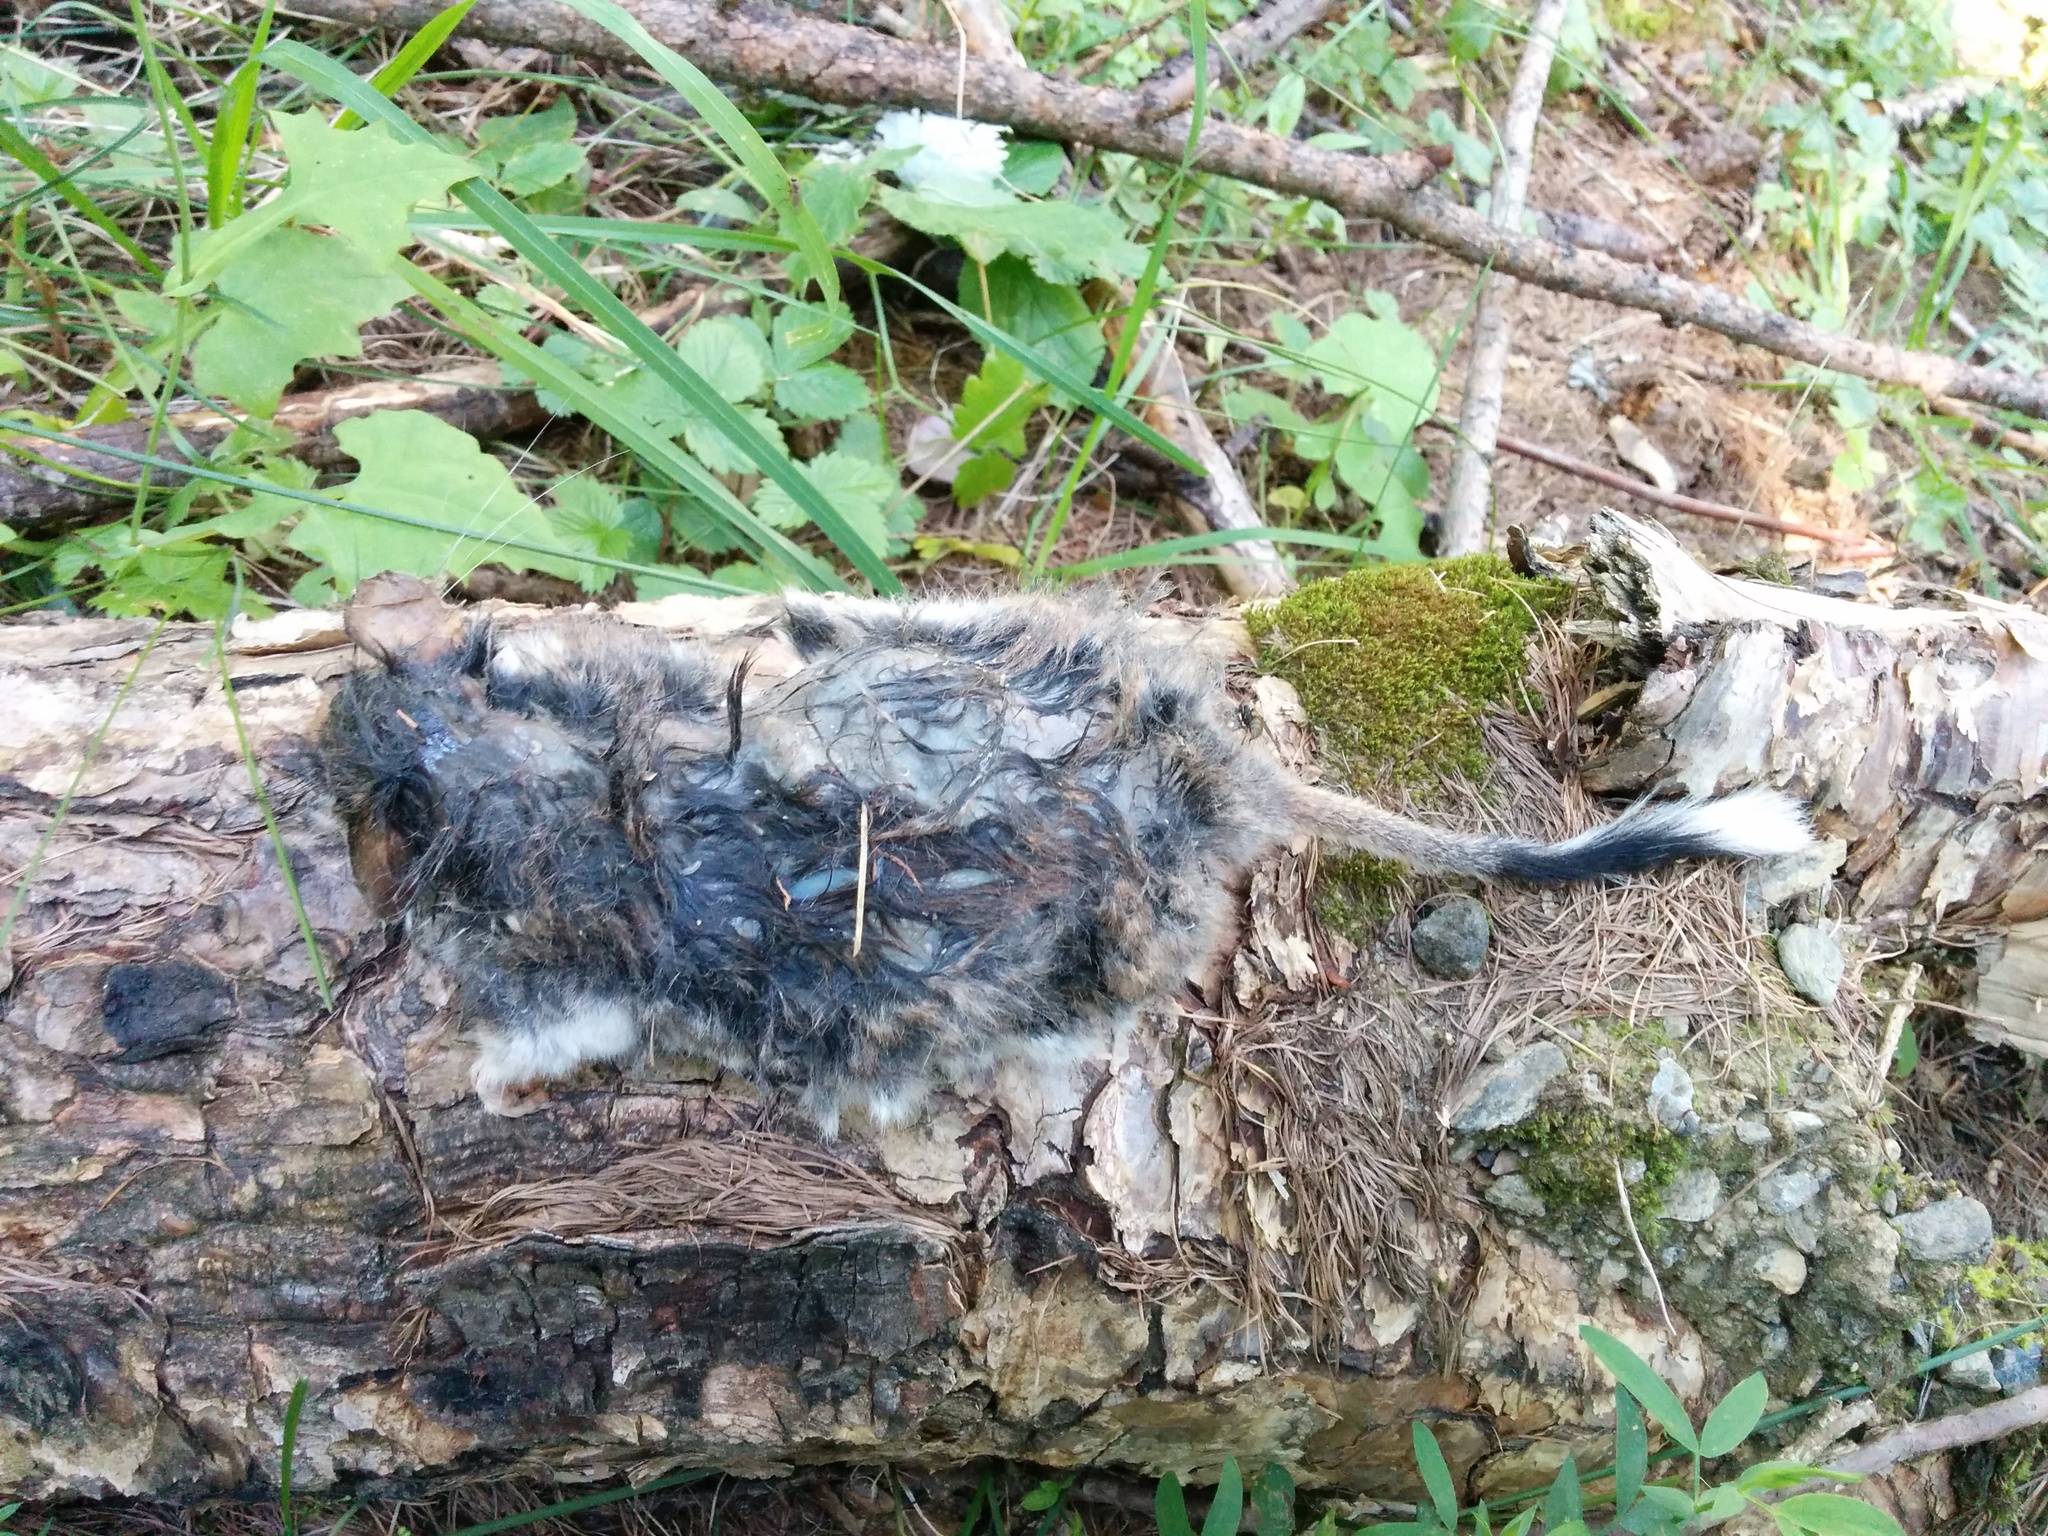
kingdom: Animalia
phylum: Chordata
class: Mammalia
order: Rodentia
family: Gliridae
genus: Eliomys
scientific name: Eliomys quercinus
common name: Garden dormouse
